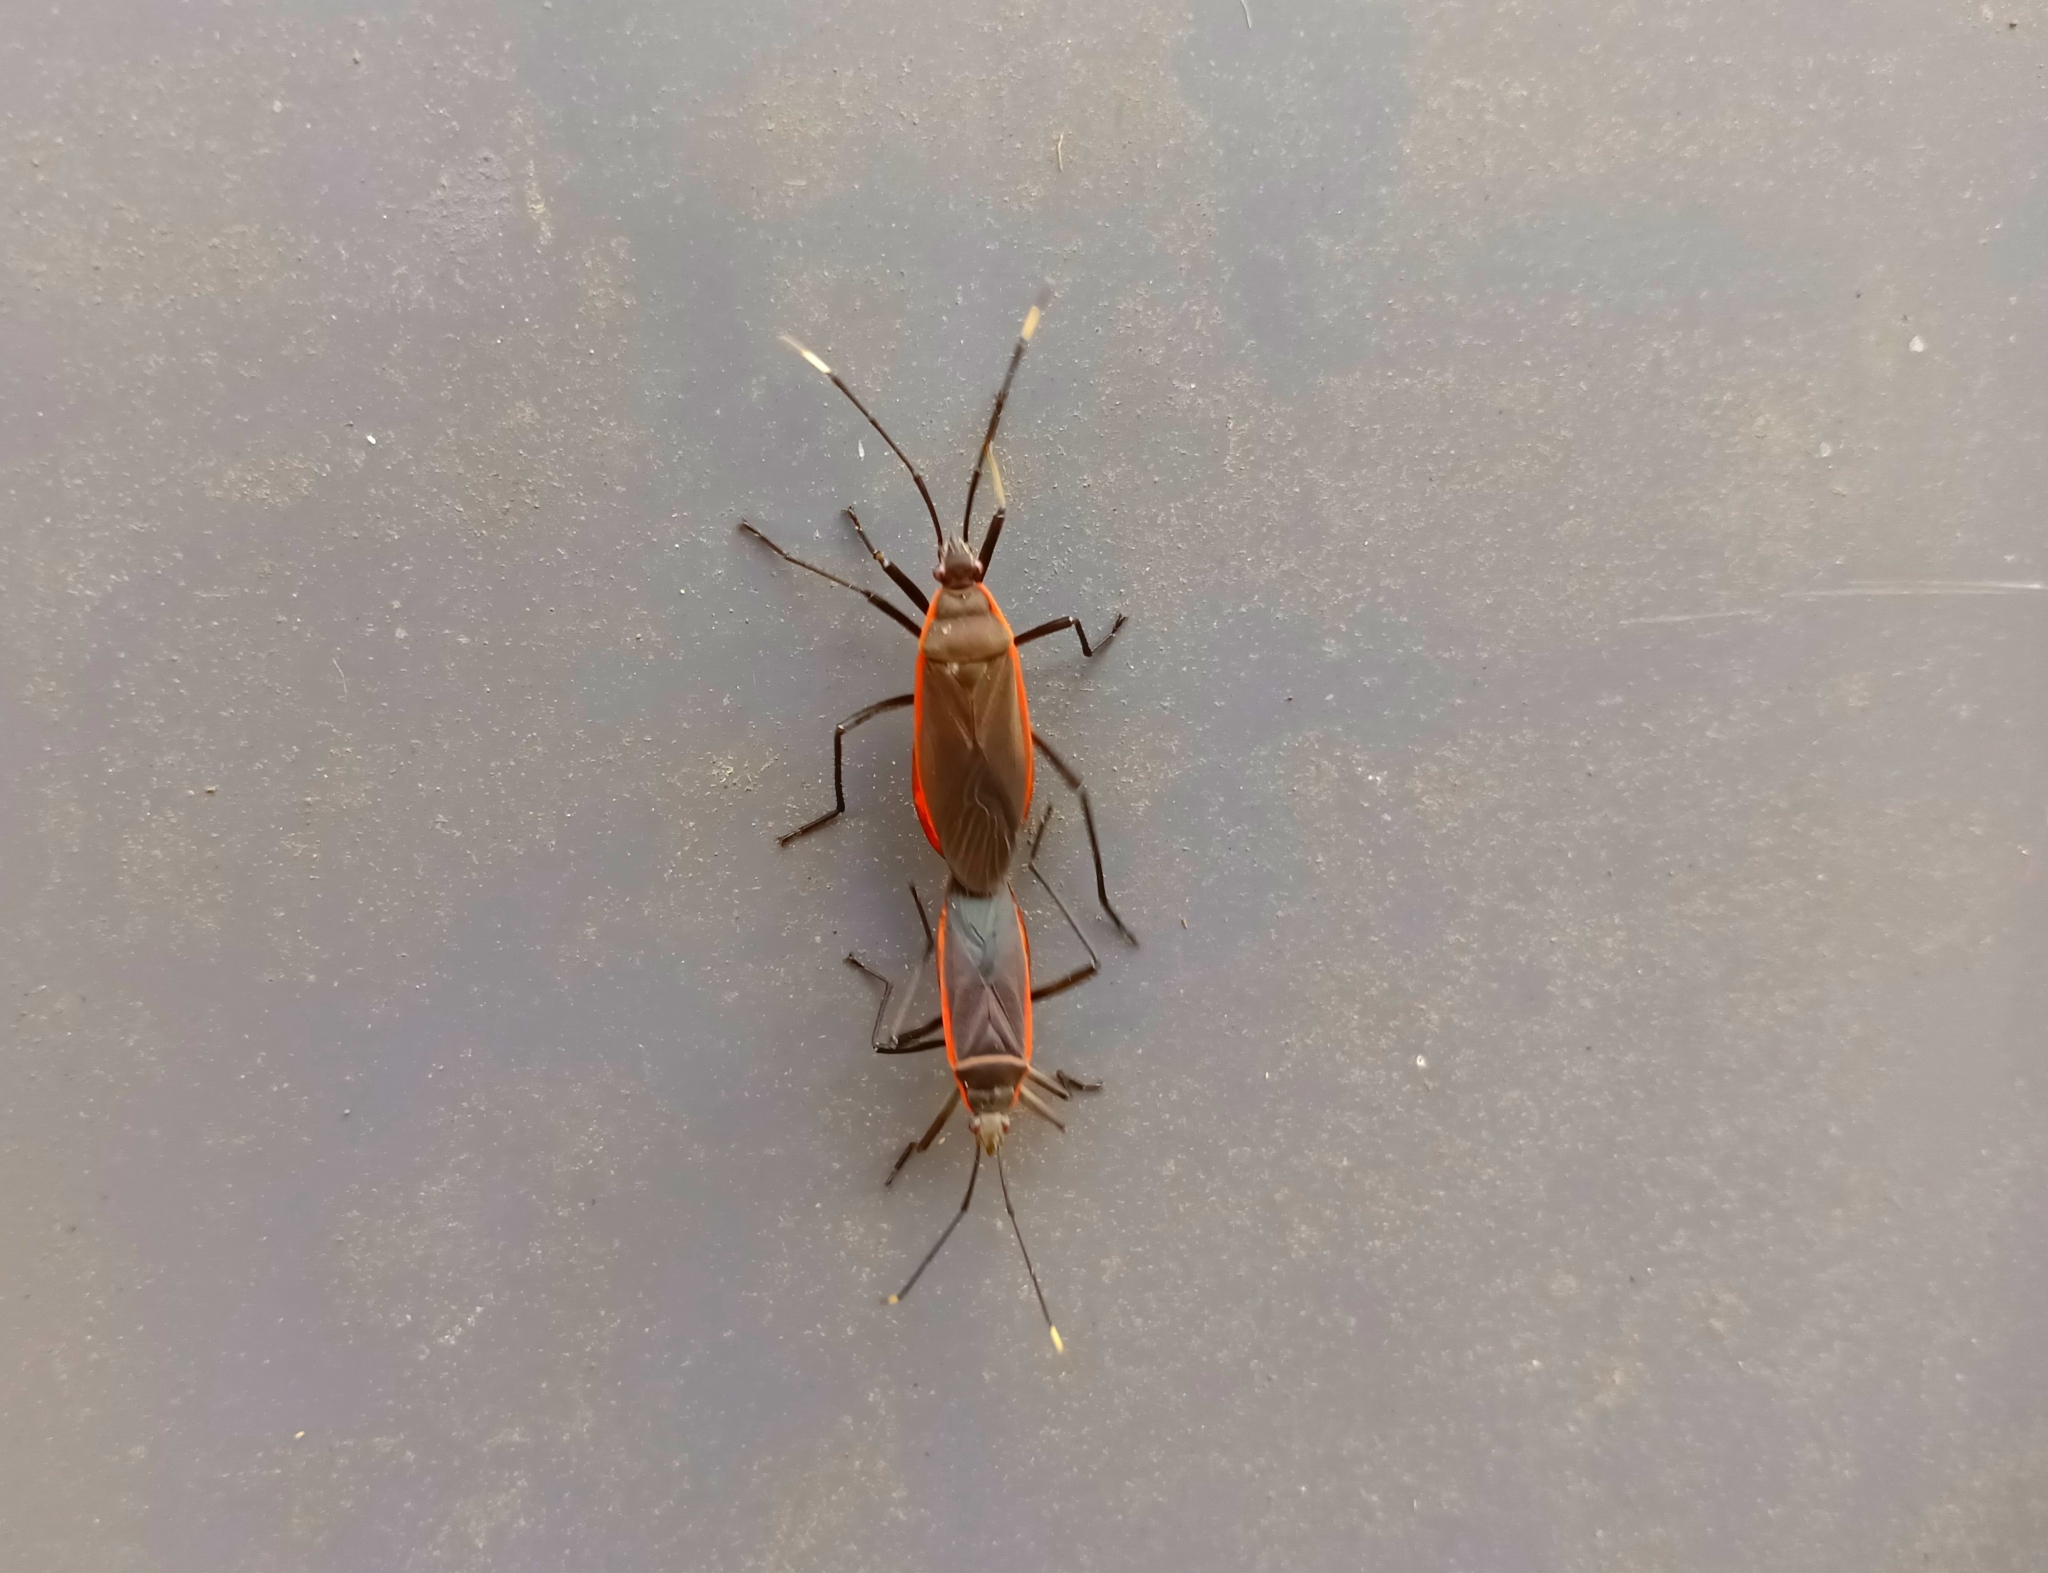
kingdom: Animalia
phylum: Arthropoda
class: Insecta
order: Hemiptera
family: Pyrrhocoridae
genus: Melamphaus
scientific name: Melamphaus
